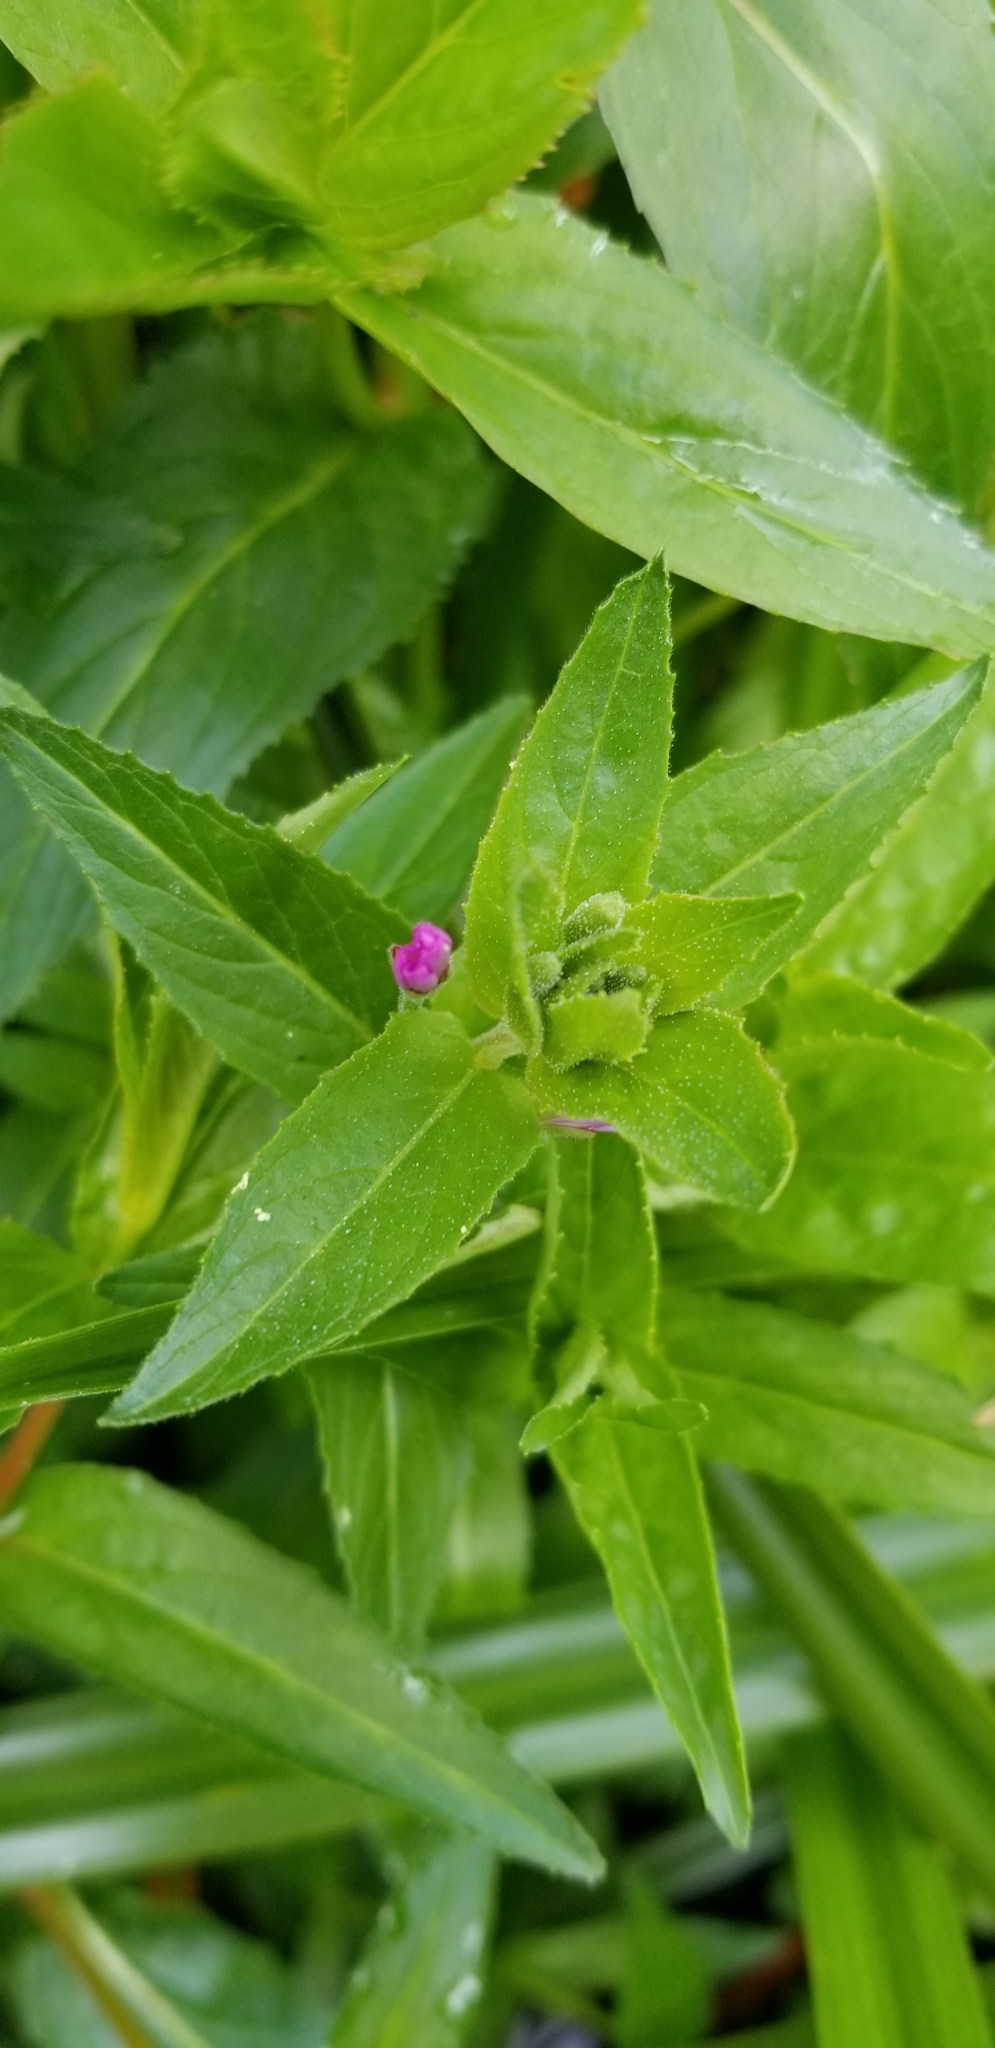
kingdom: Plantae
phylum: Tracheophyta
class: Magnoliopsida
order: Myrtales
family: Onagraceae
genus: Epilobium
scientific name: Epilobium ciliatum
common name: American willowherb
